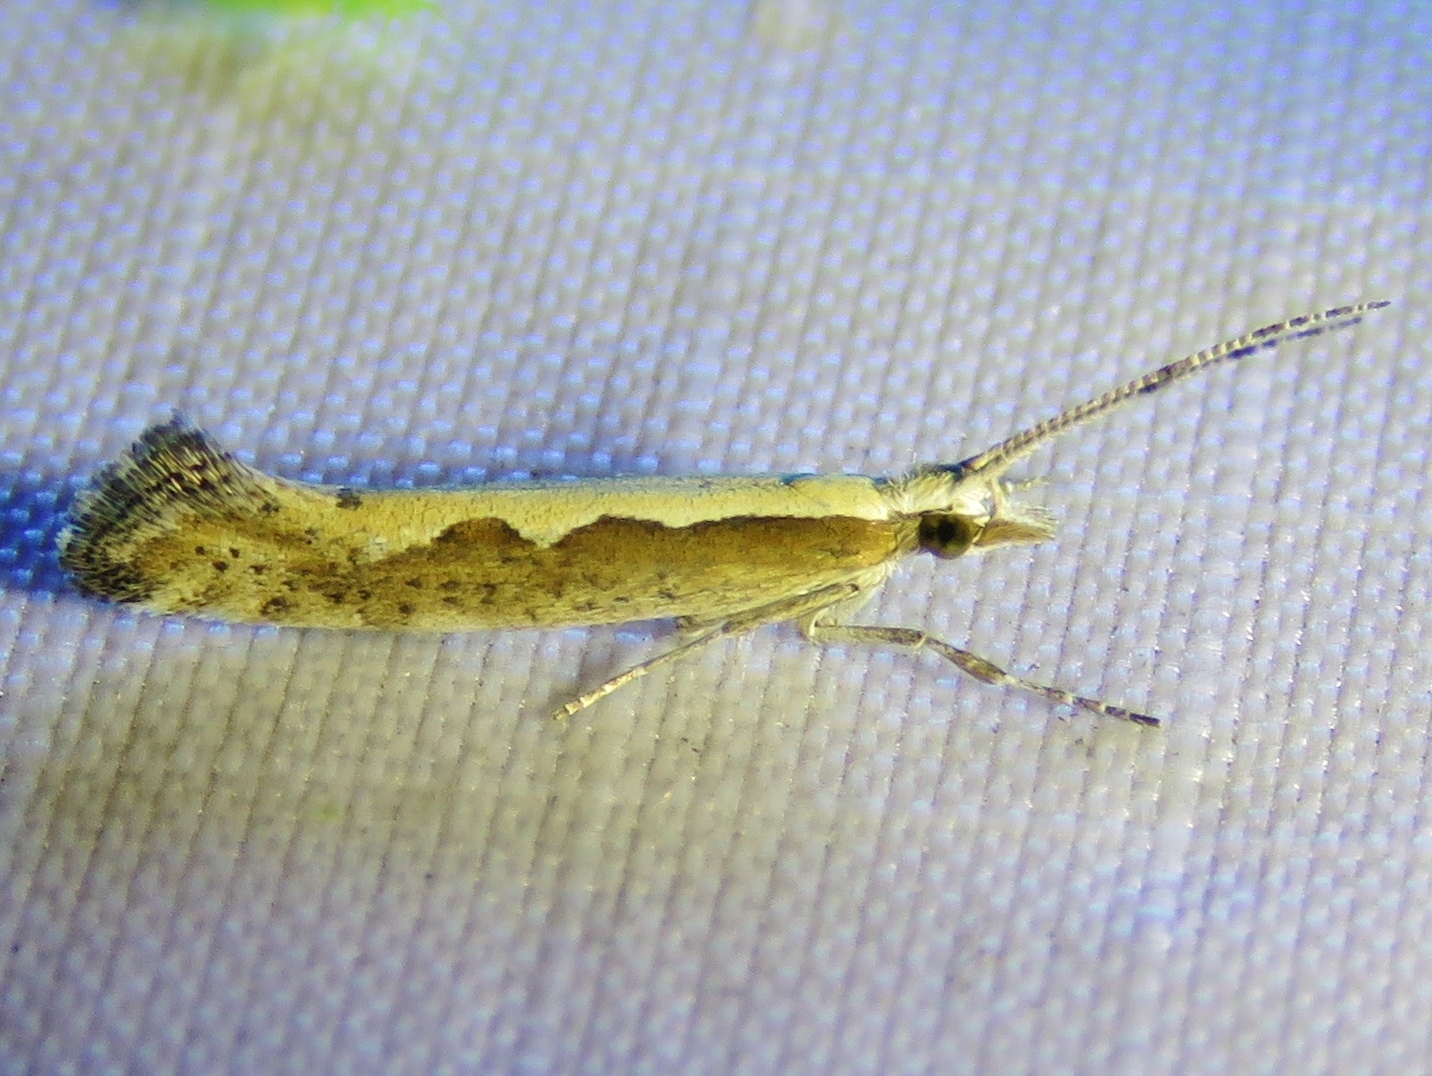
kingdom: Animalia
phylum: Arthropoda
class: Insecta
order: Lepidoptera
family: Plutellidae
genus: Plutella
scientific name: Plutella xylostella
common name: Diamond-back moth
